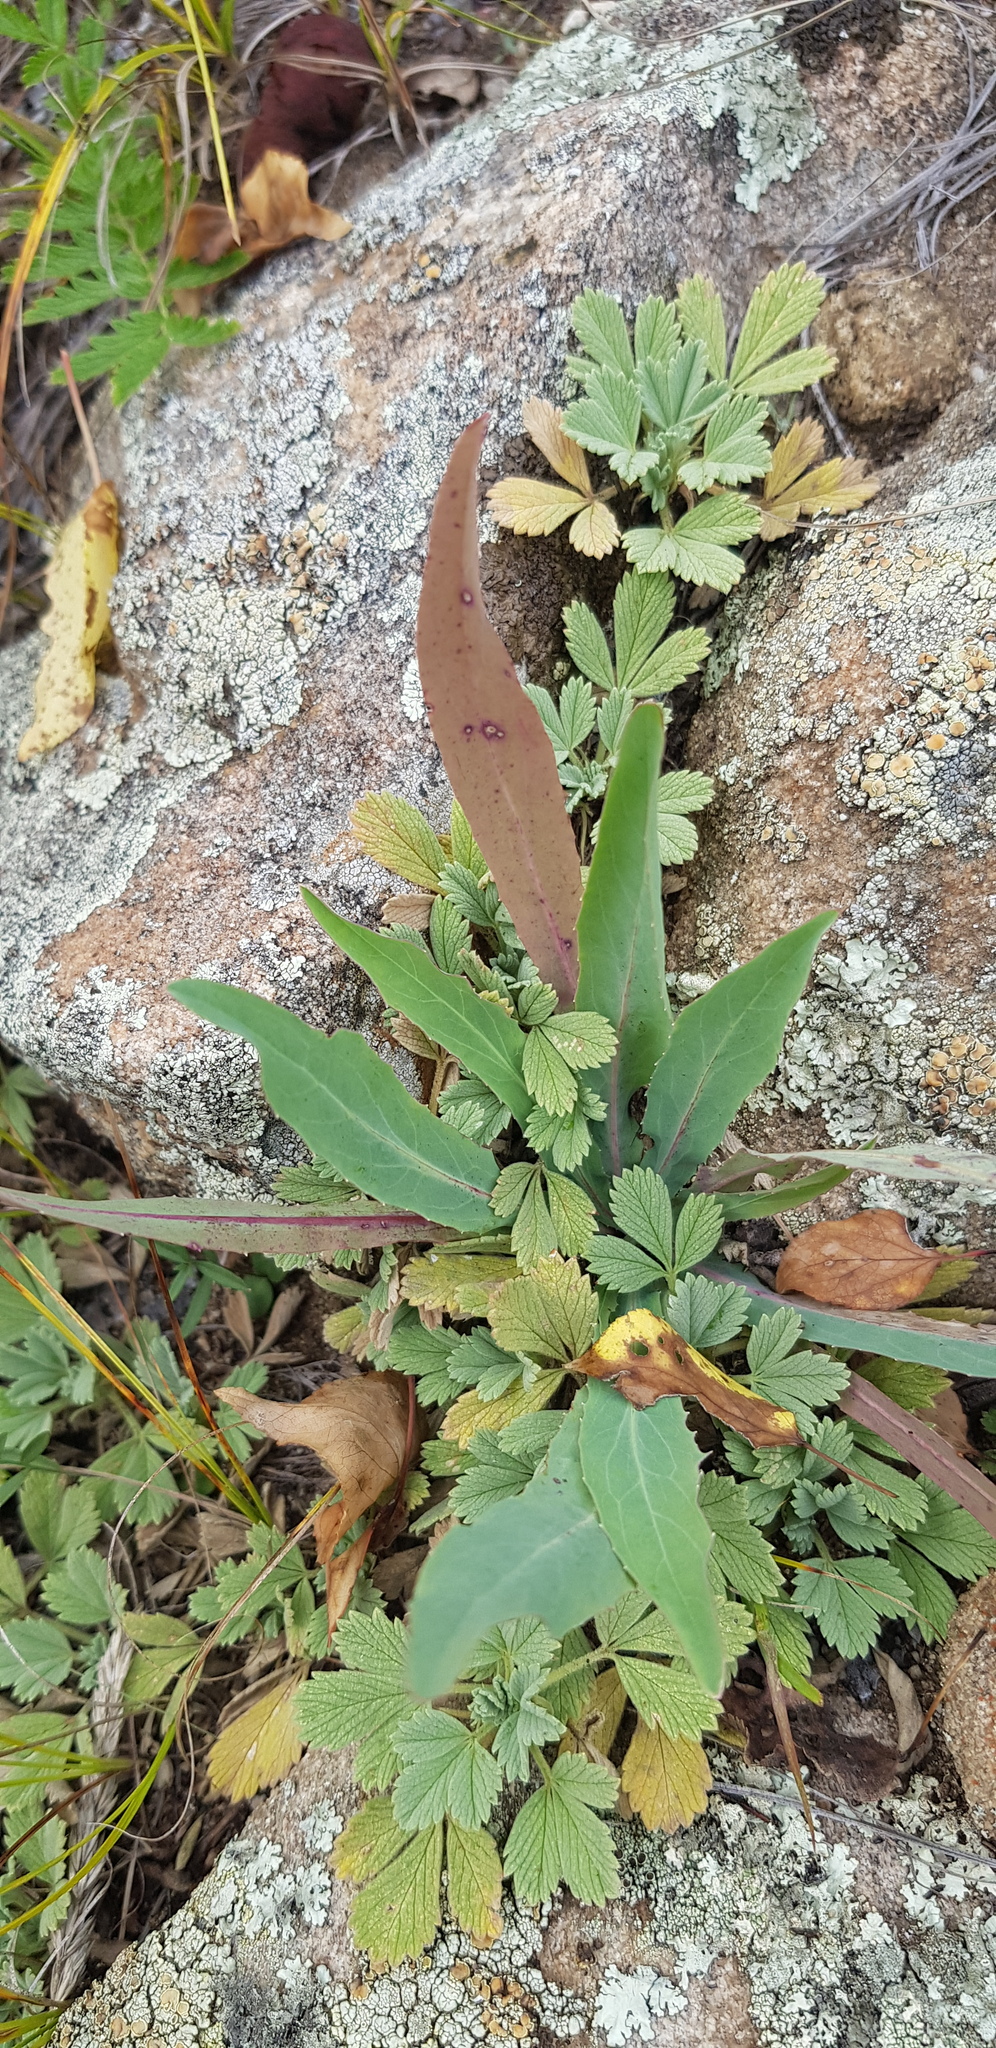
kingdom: Plantae
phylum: Tracheophyta
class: Magnoliopsida
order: Rosales
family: Rosaceae
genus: Potentilla
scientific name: Potentilla acaulis
